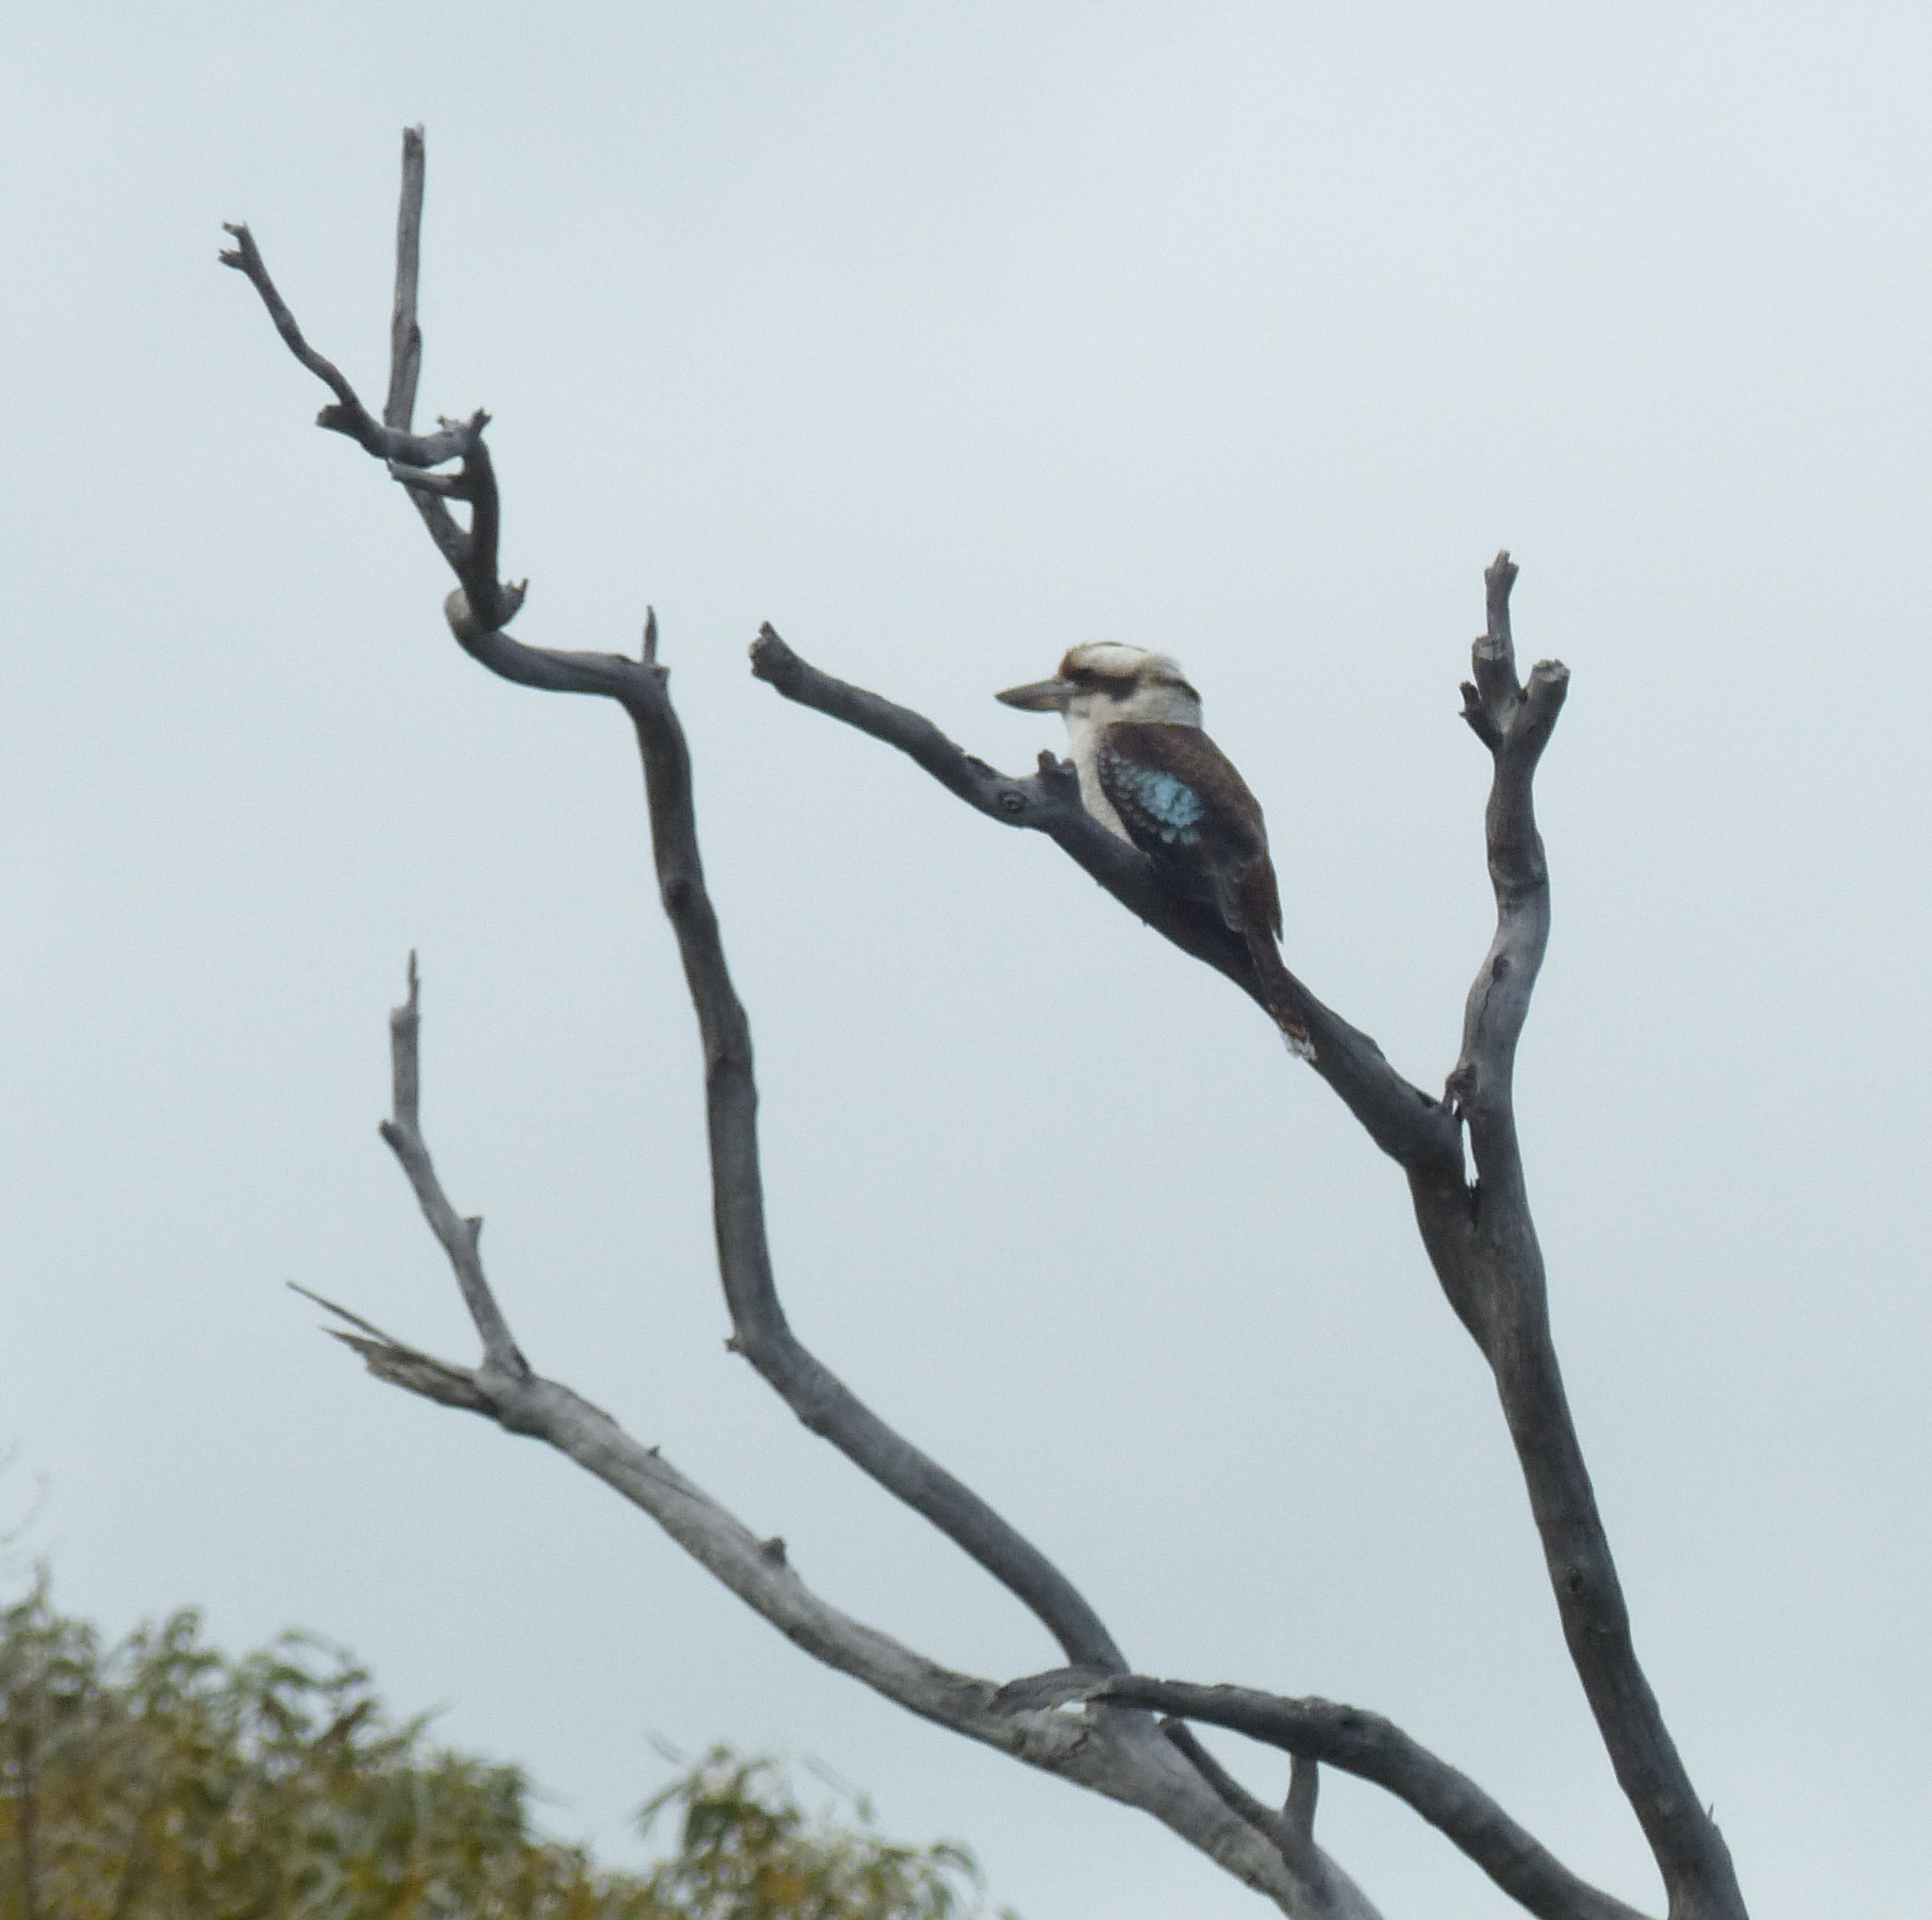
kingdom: Animalia
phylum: Chordata
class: Aves
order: Coraciiformes
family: Alcedinidae
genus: Dacelo
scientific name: Dacelo novaeguineae
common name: Laughing kookaburra
